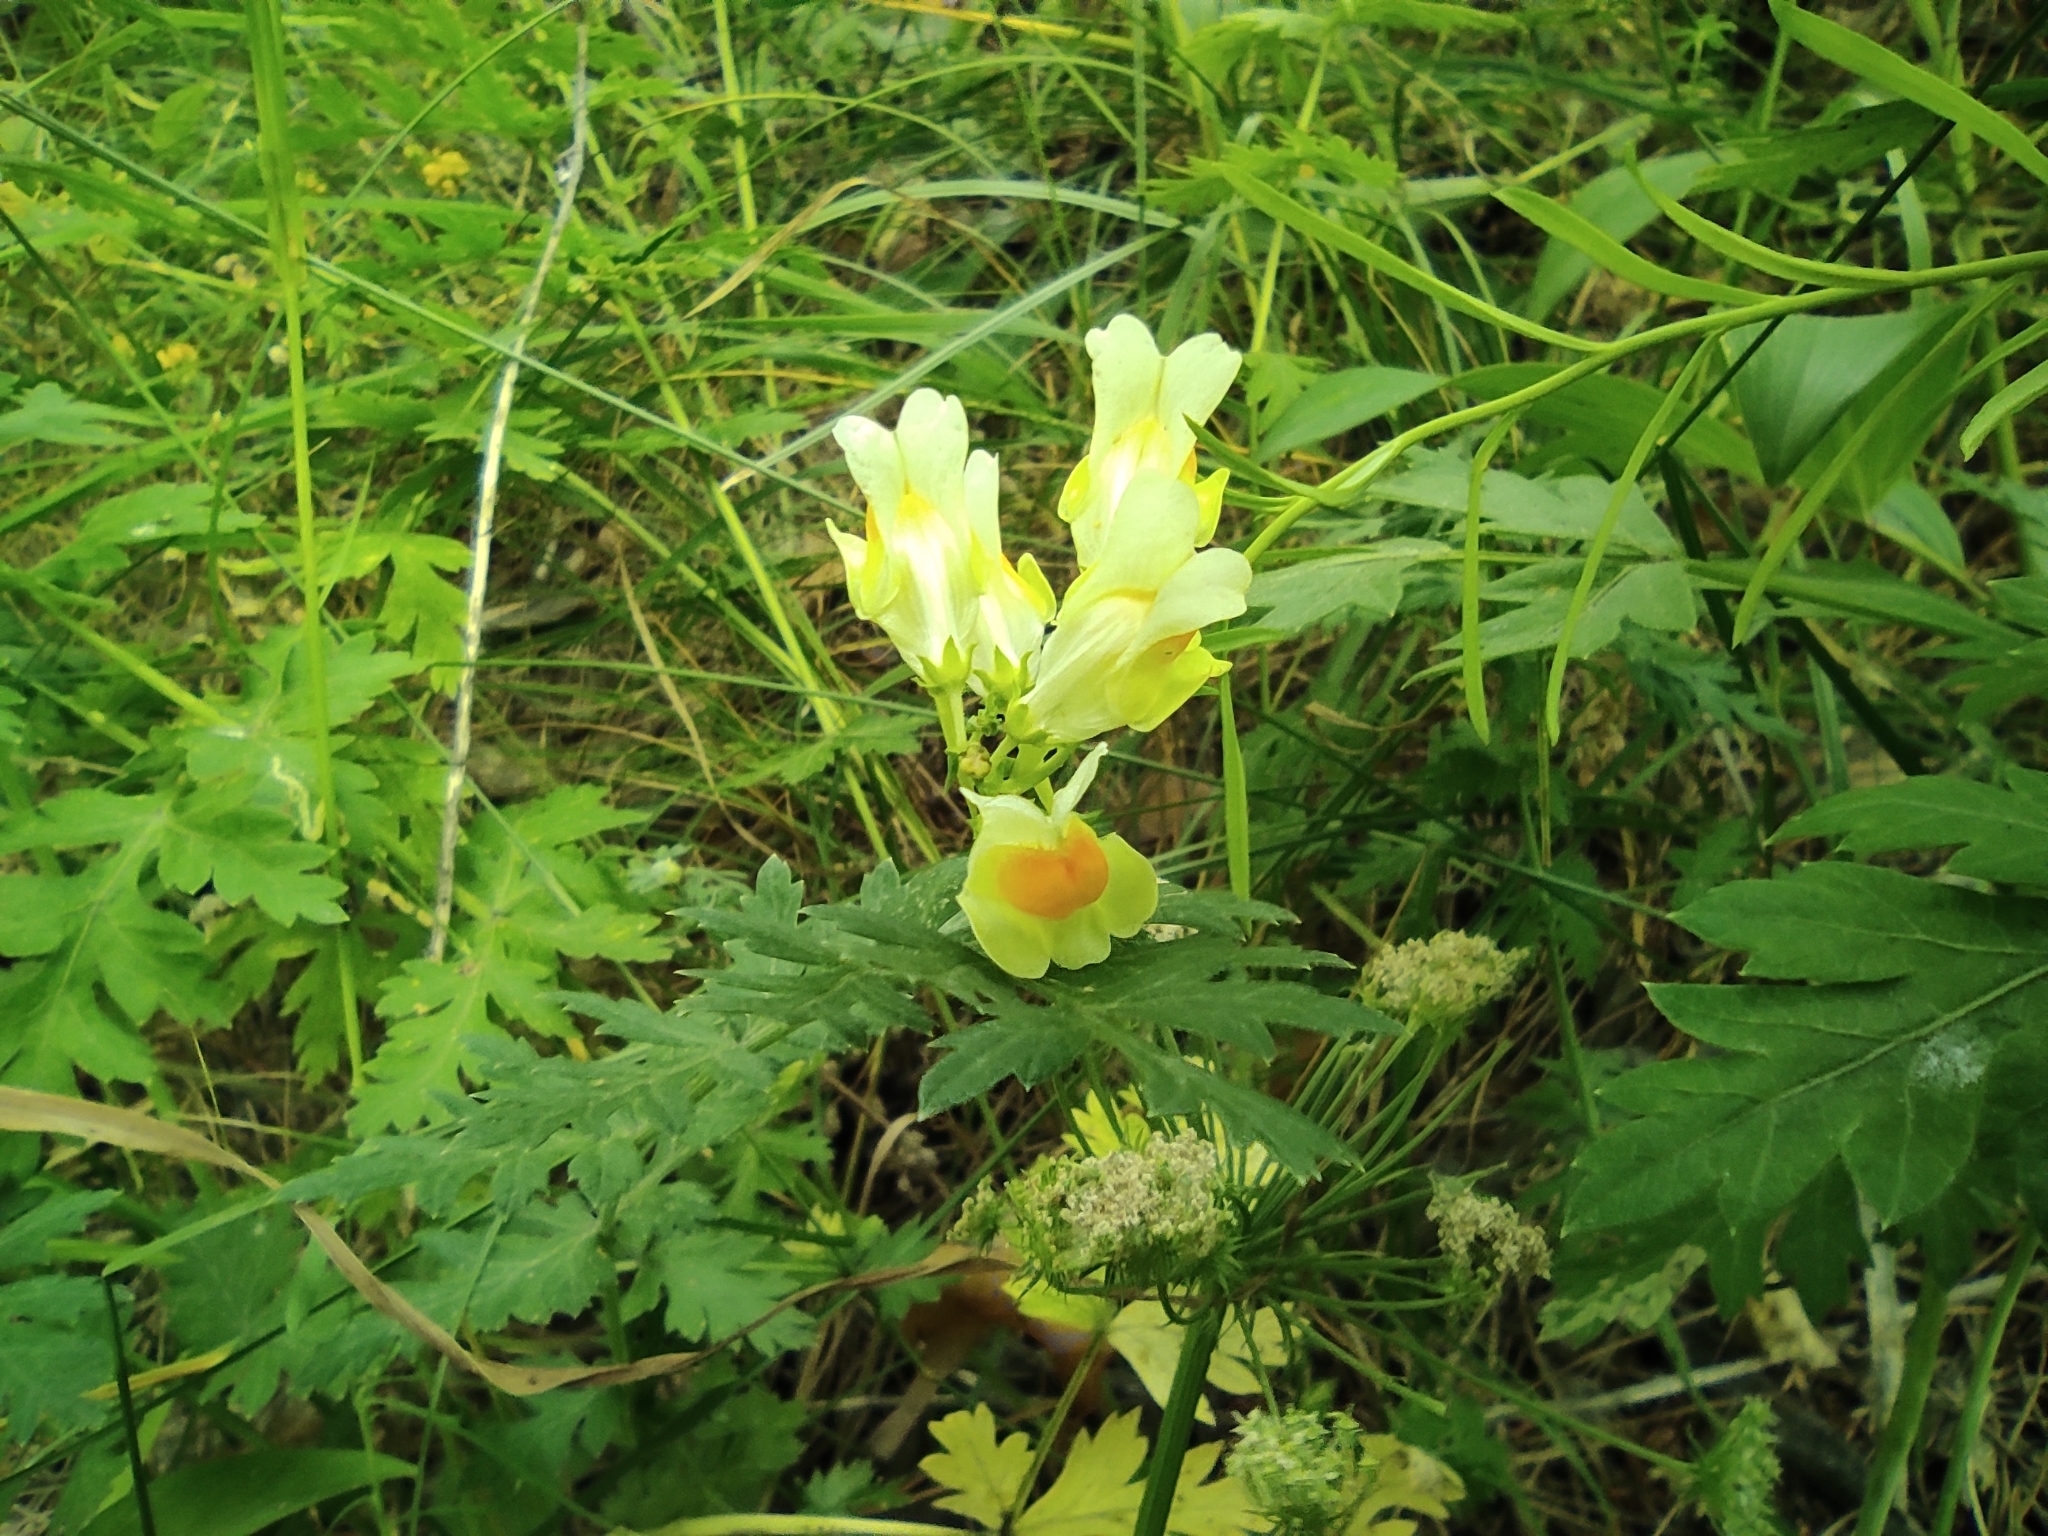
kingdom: Plantae
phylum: Tracheophyta
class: Magnoliopsida
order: Lamiales
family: Plantaginaceae
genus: Linaria
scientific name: Linaria vulgaris
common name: Butter and eggs
